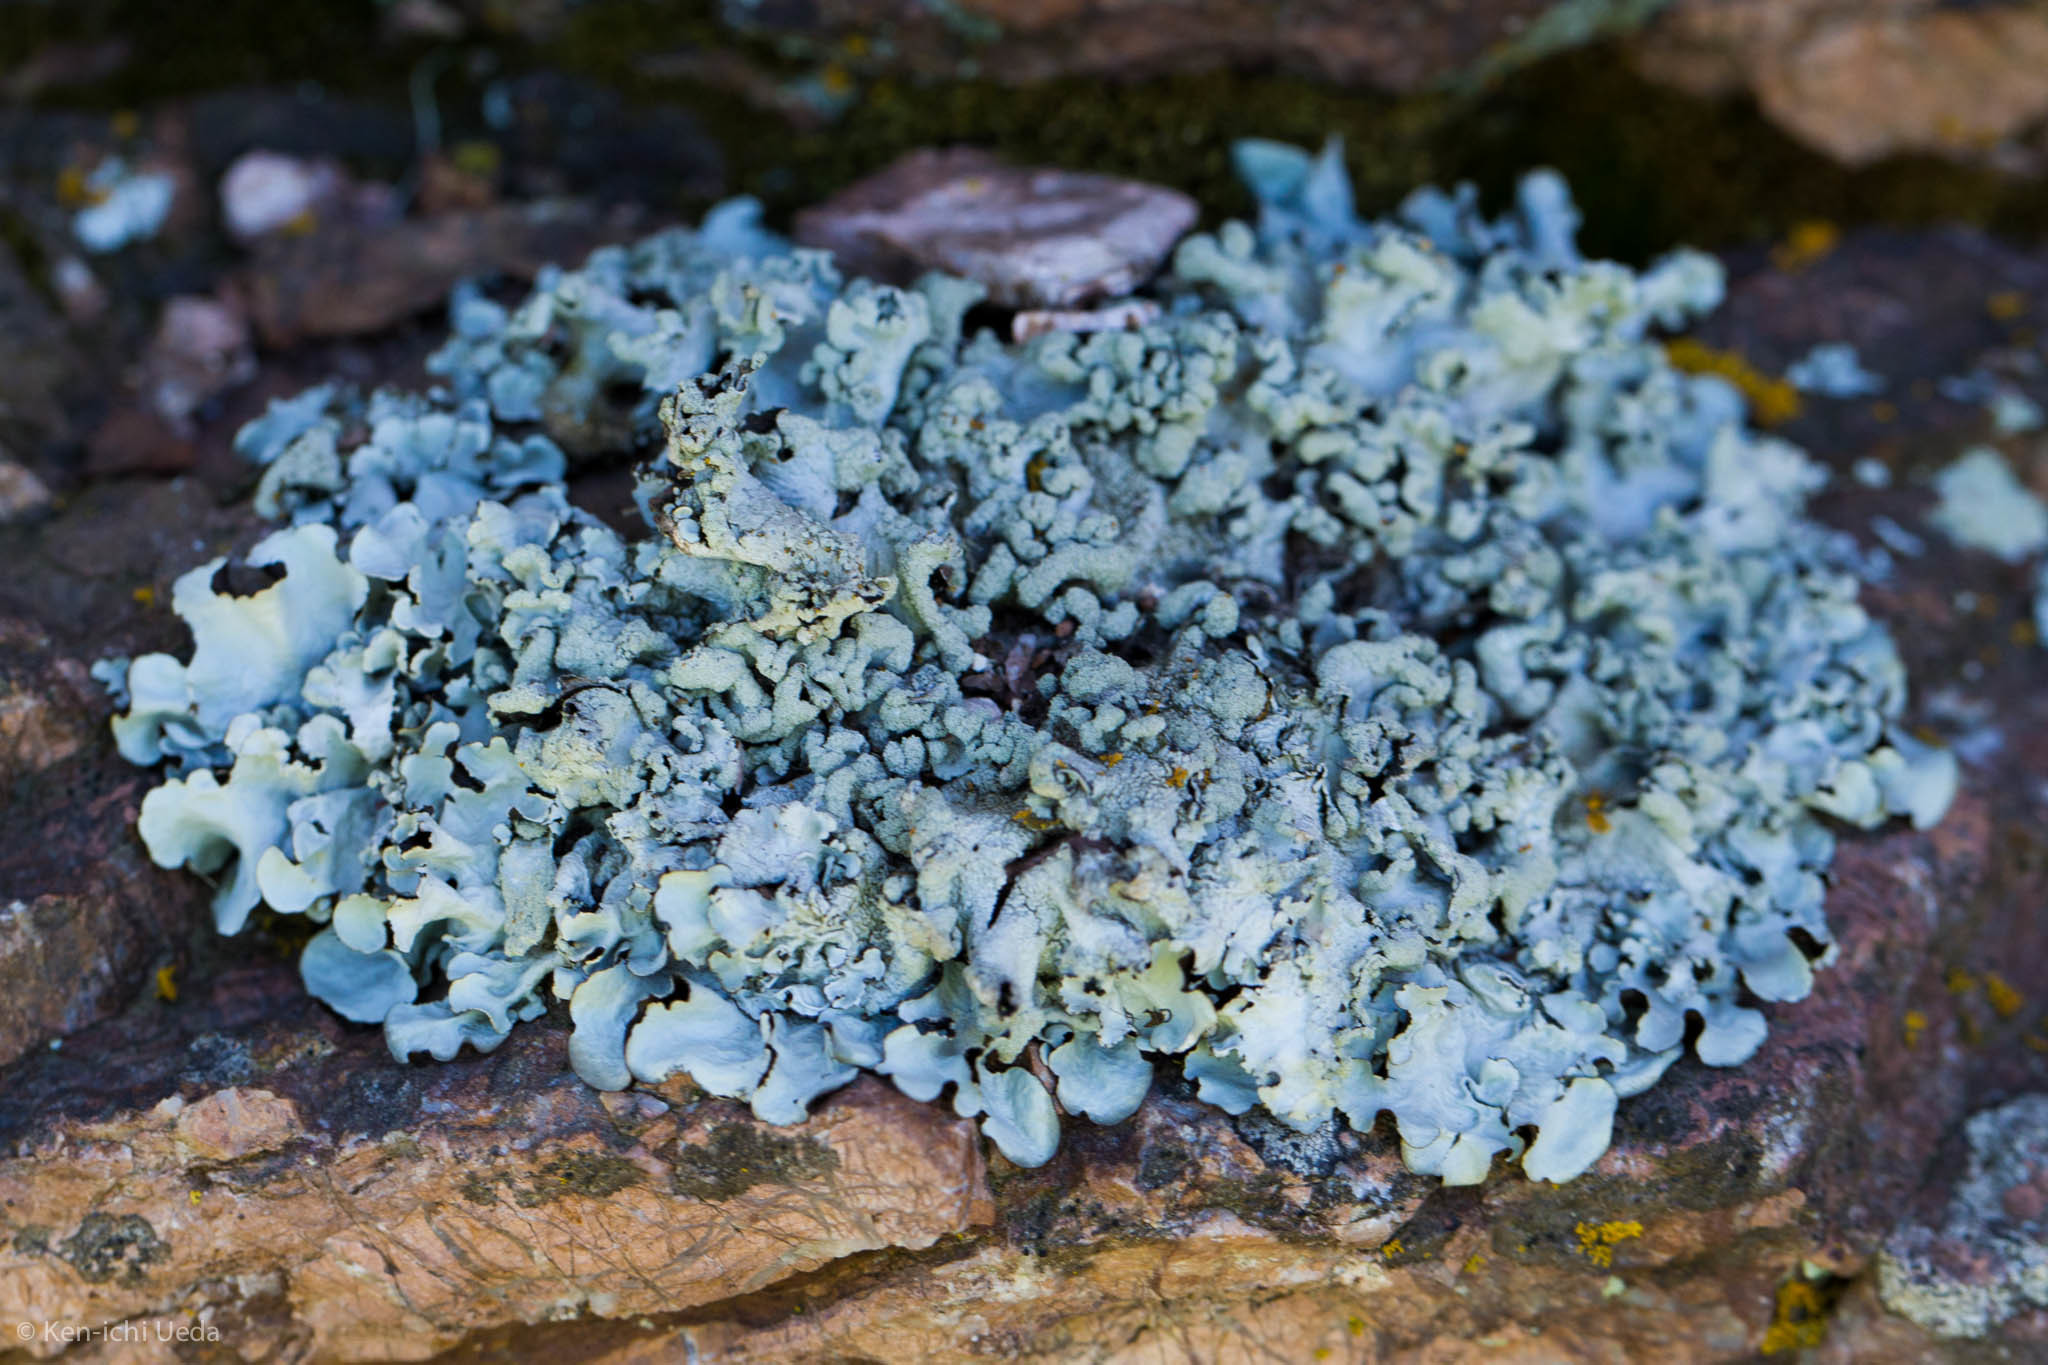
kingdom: Fungi
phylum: Ascomycota
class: Lecanoromycetes
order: Lecanorales
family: Parmeliaceae
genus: Parmotrema
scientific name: Parmotrema perlatum
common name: Black stone flower
